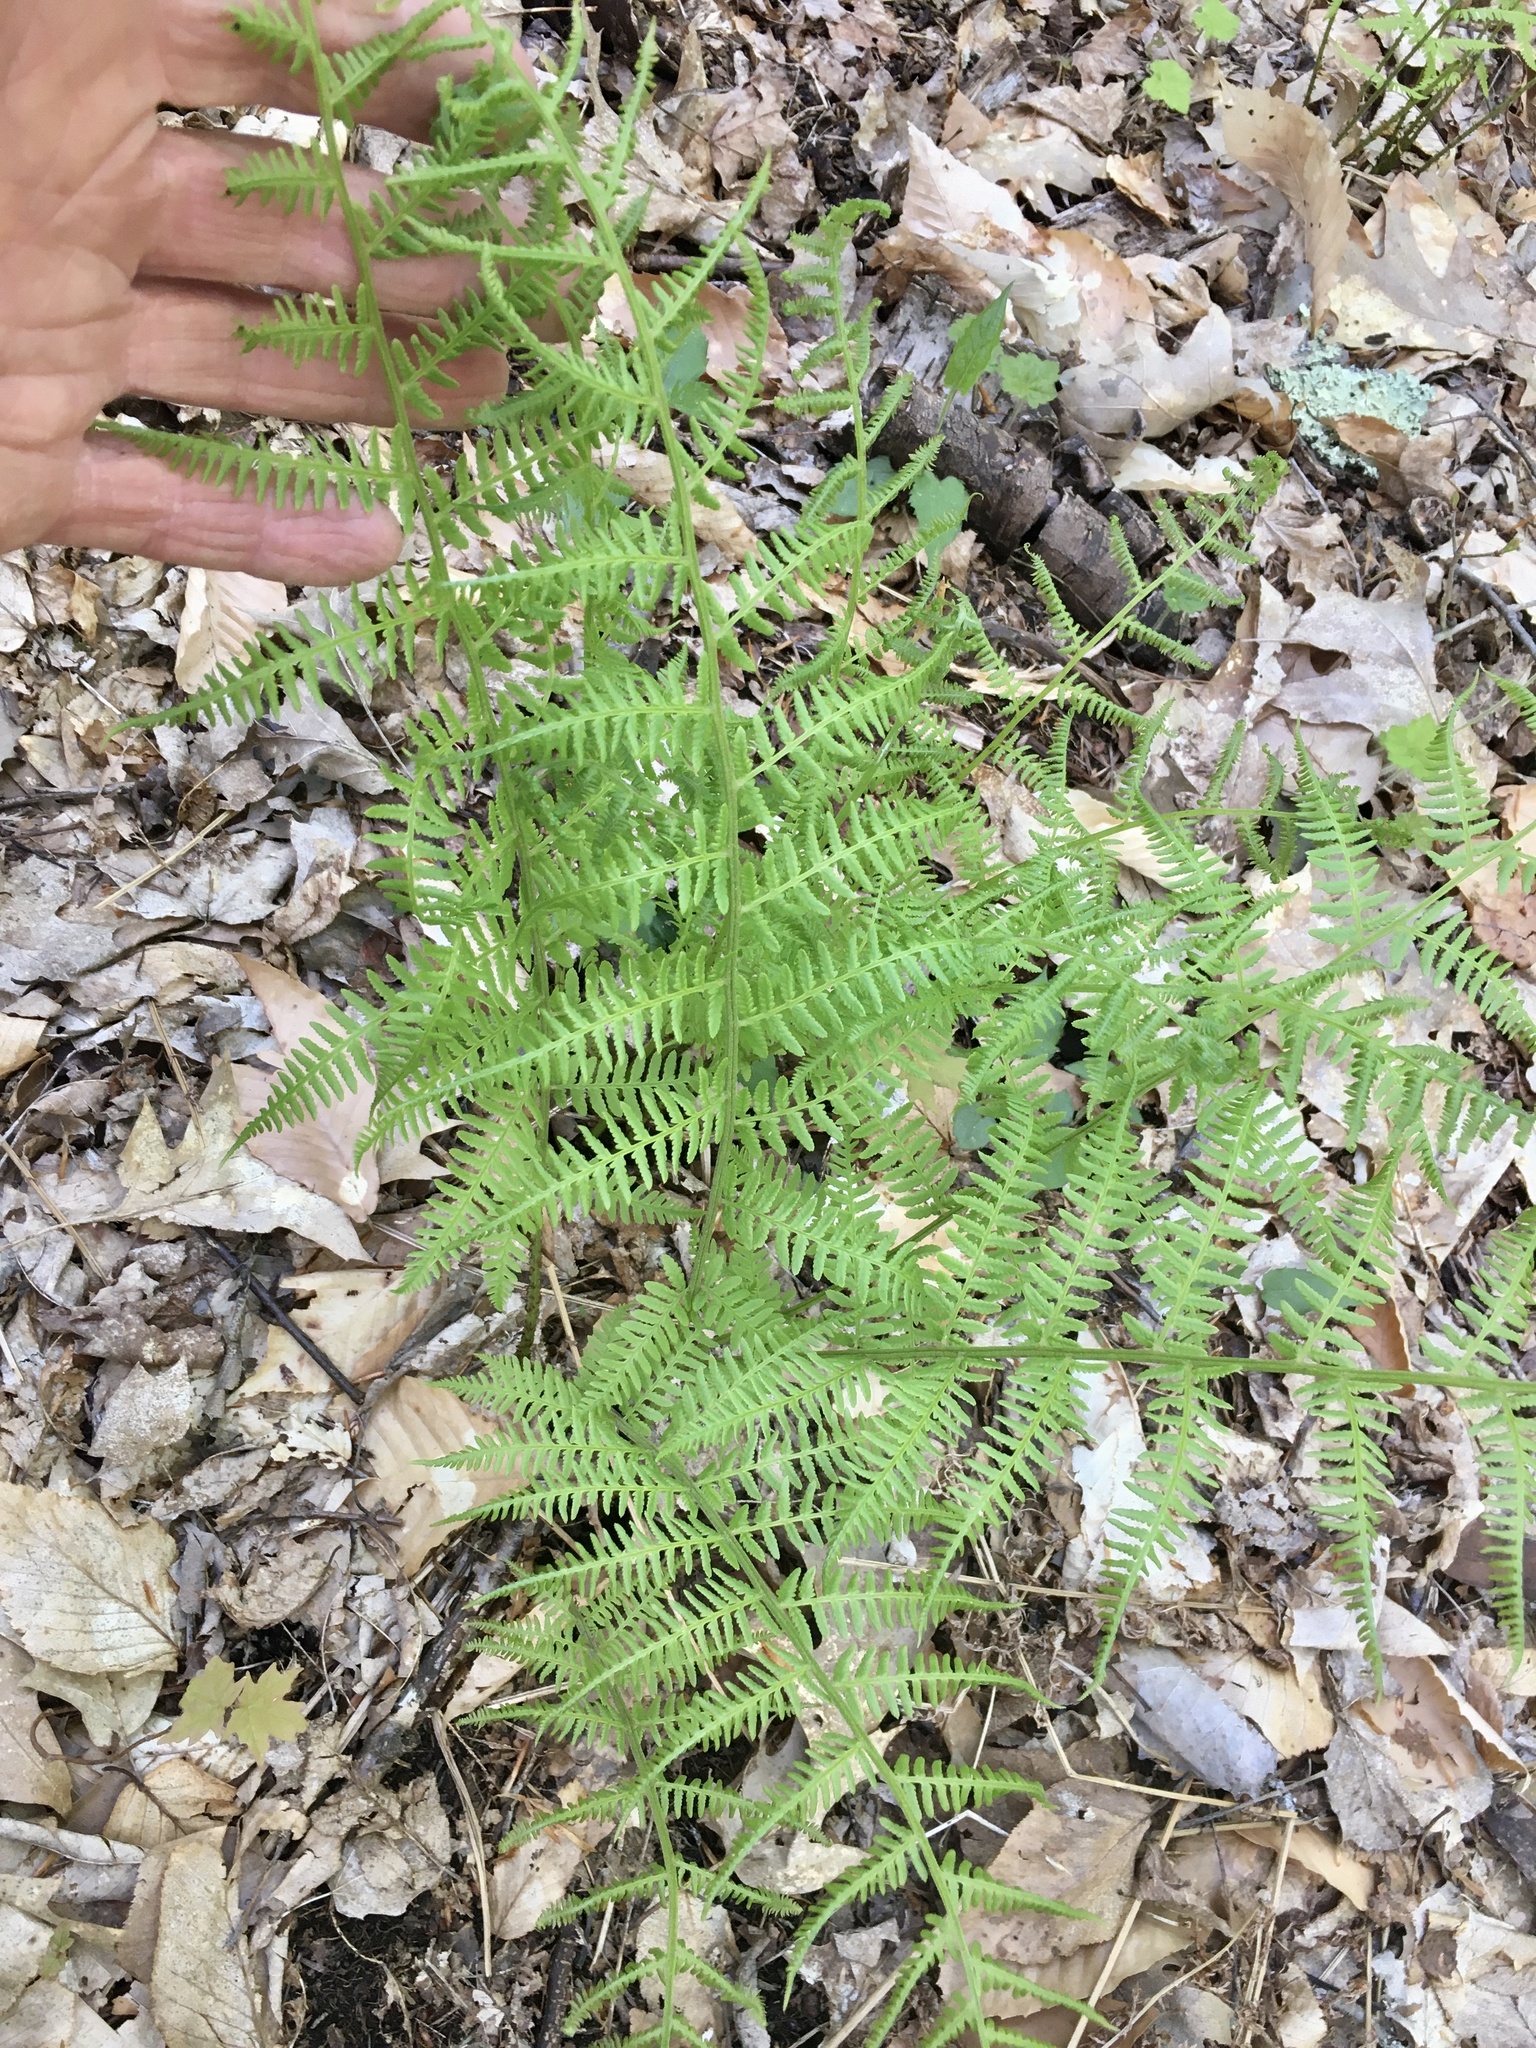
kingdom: Plantae
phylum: Tracheophyta
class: Polypodiopsida
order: Polypodiales
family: Athyriaceae
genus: Athyrium
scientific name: Athyrium angustum
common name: Northern lady fern
